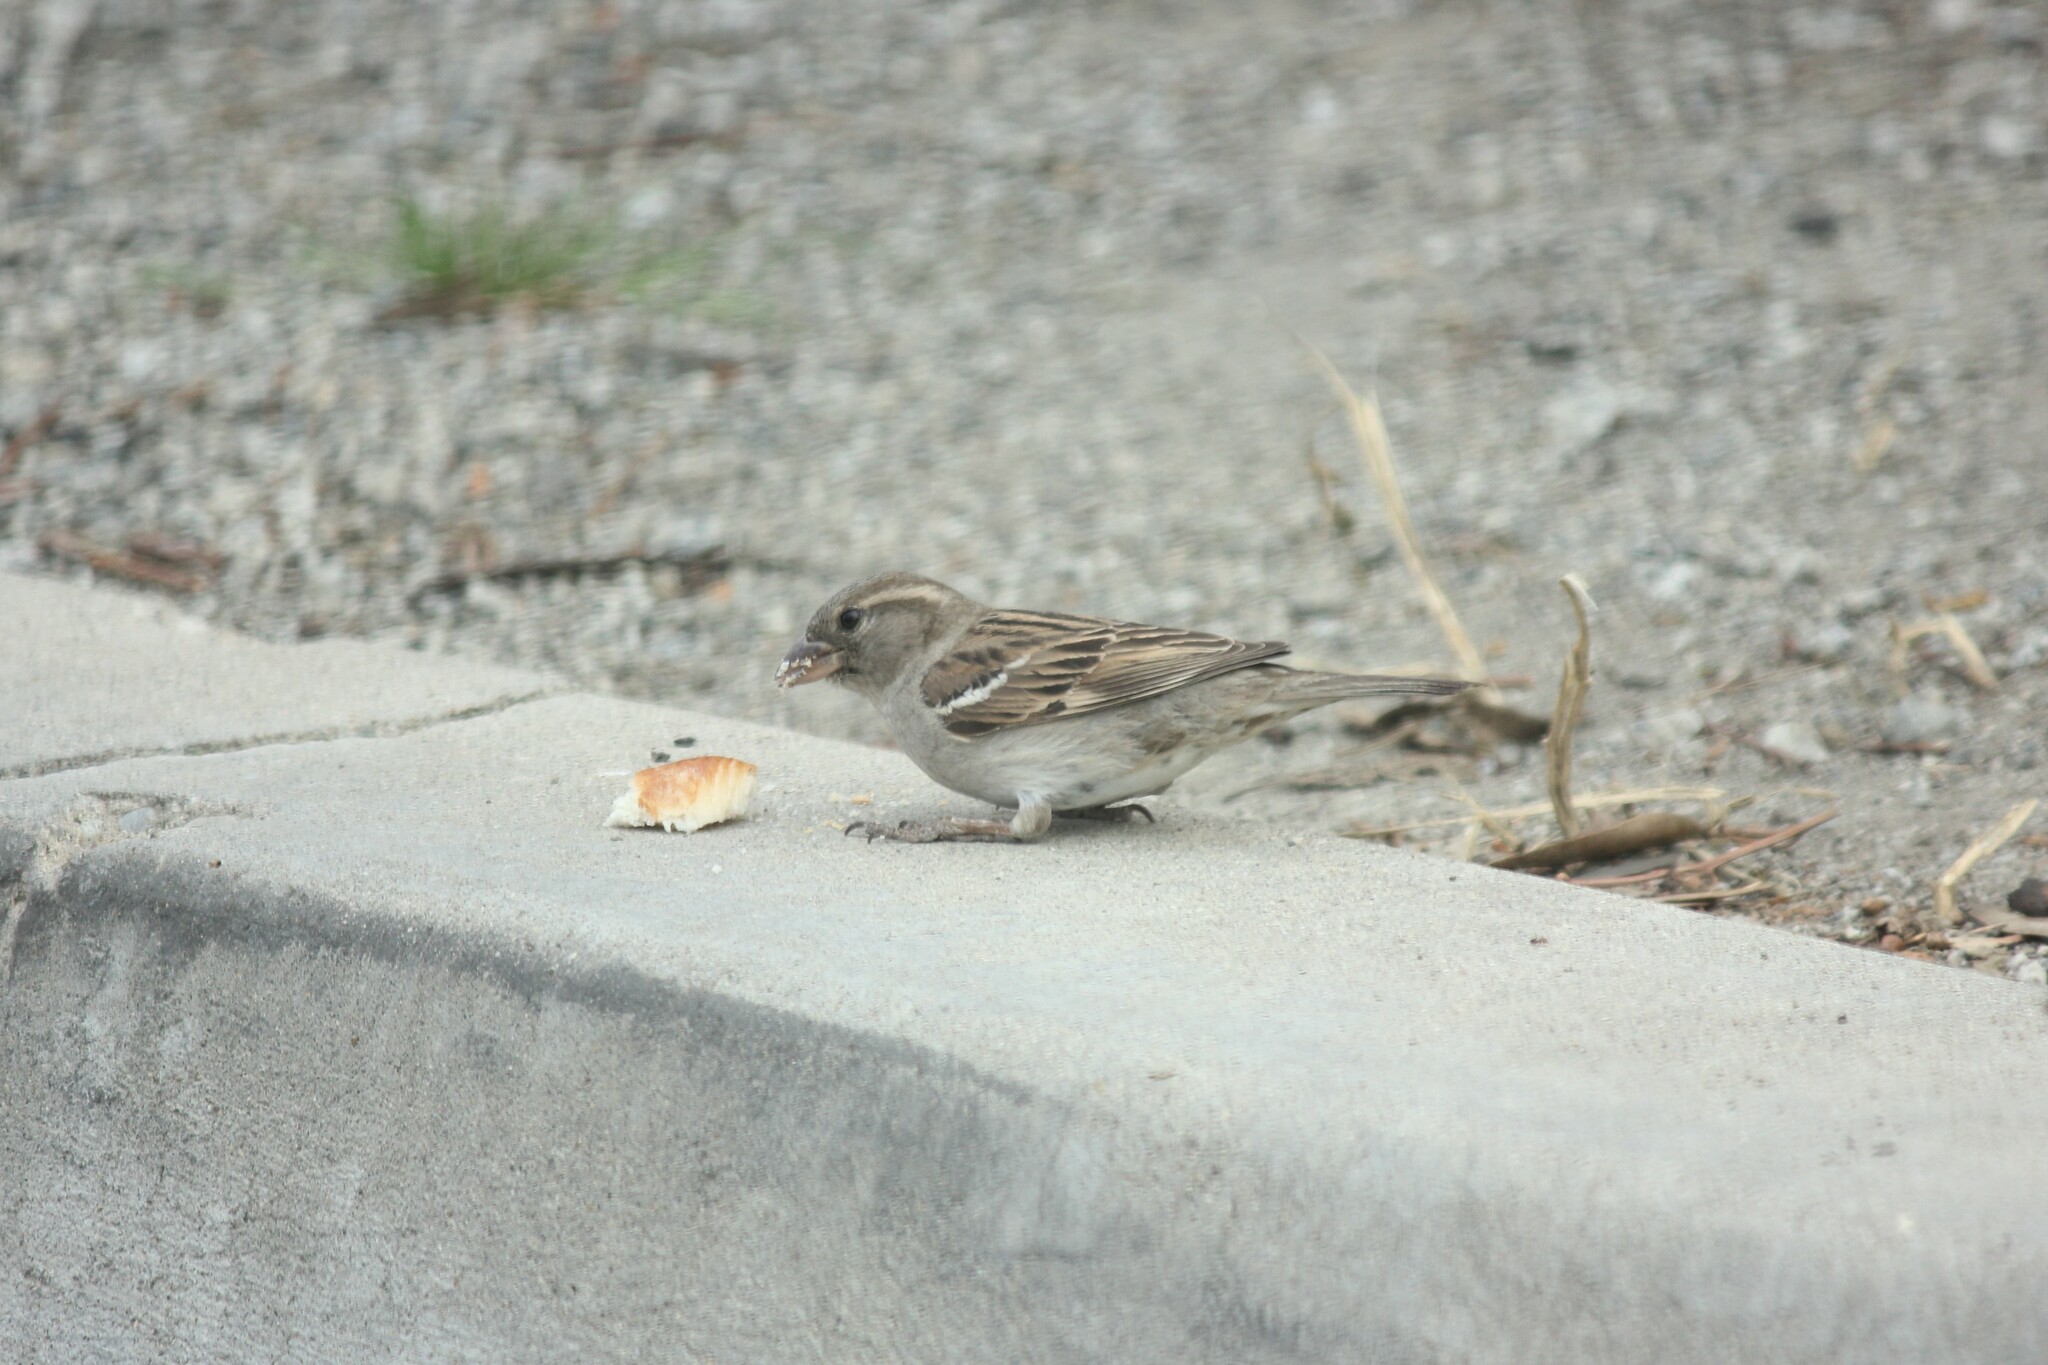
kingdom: Animalia
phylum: Chordata
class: Aves
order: Passeriformes
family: Passeridae
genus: Passer
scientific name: Passer domesticus
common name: House sparrow
